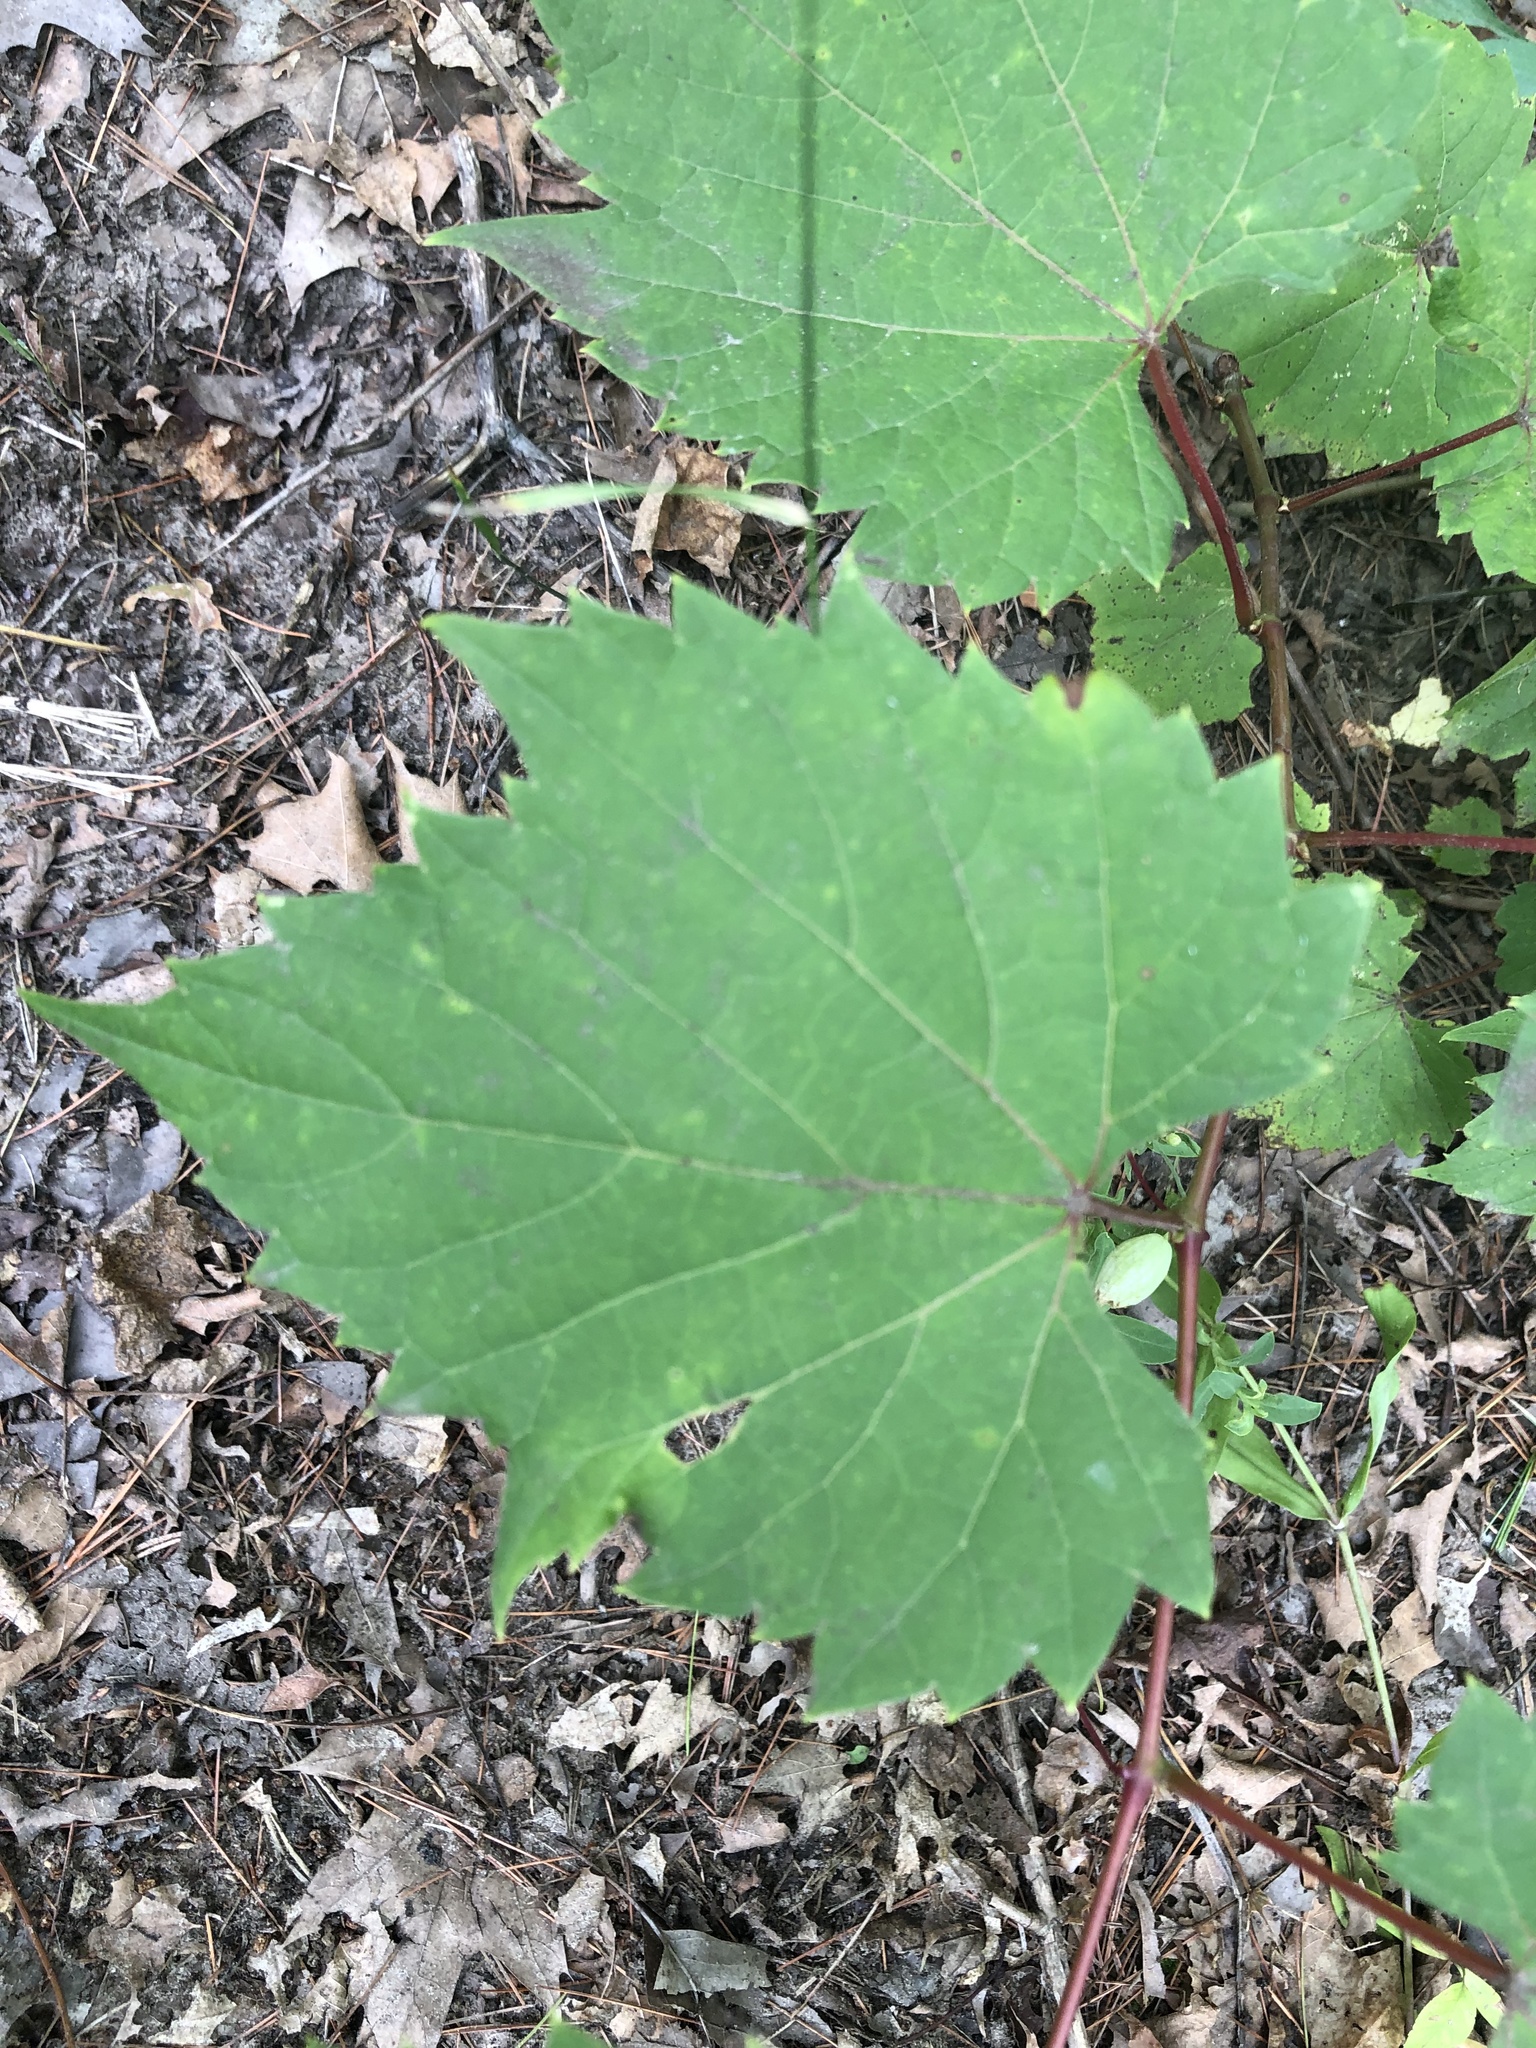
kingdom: Plantae
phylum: Tracheophyta
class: Magnoliopsida
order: Vitales
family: Vitaceae
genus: Vitis
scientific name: Vitis riparia
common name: Frost grape
